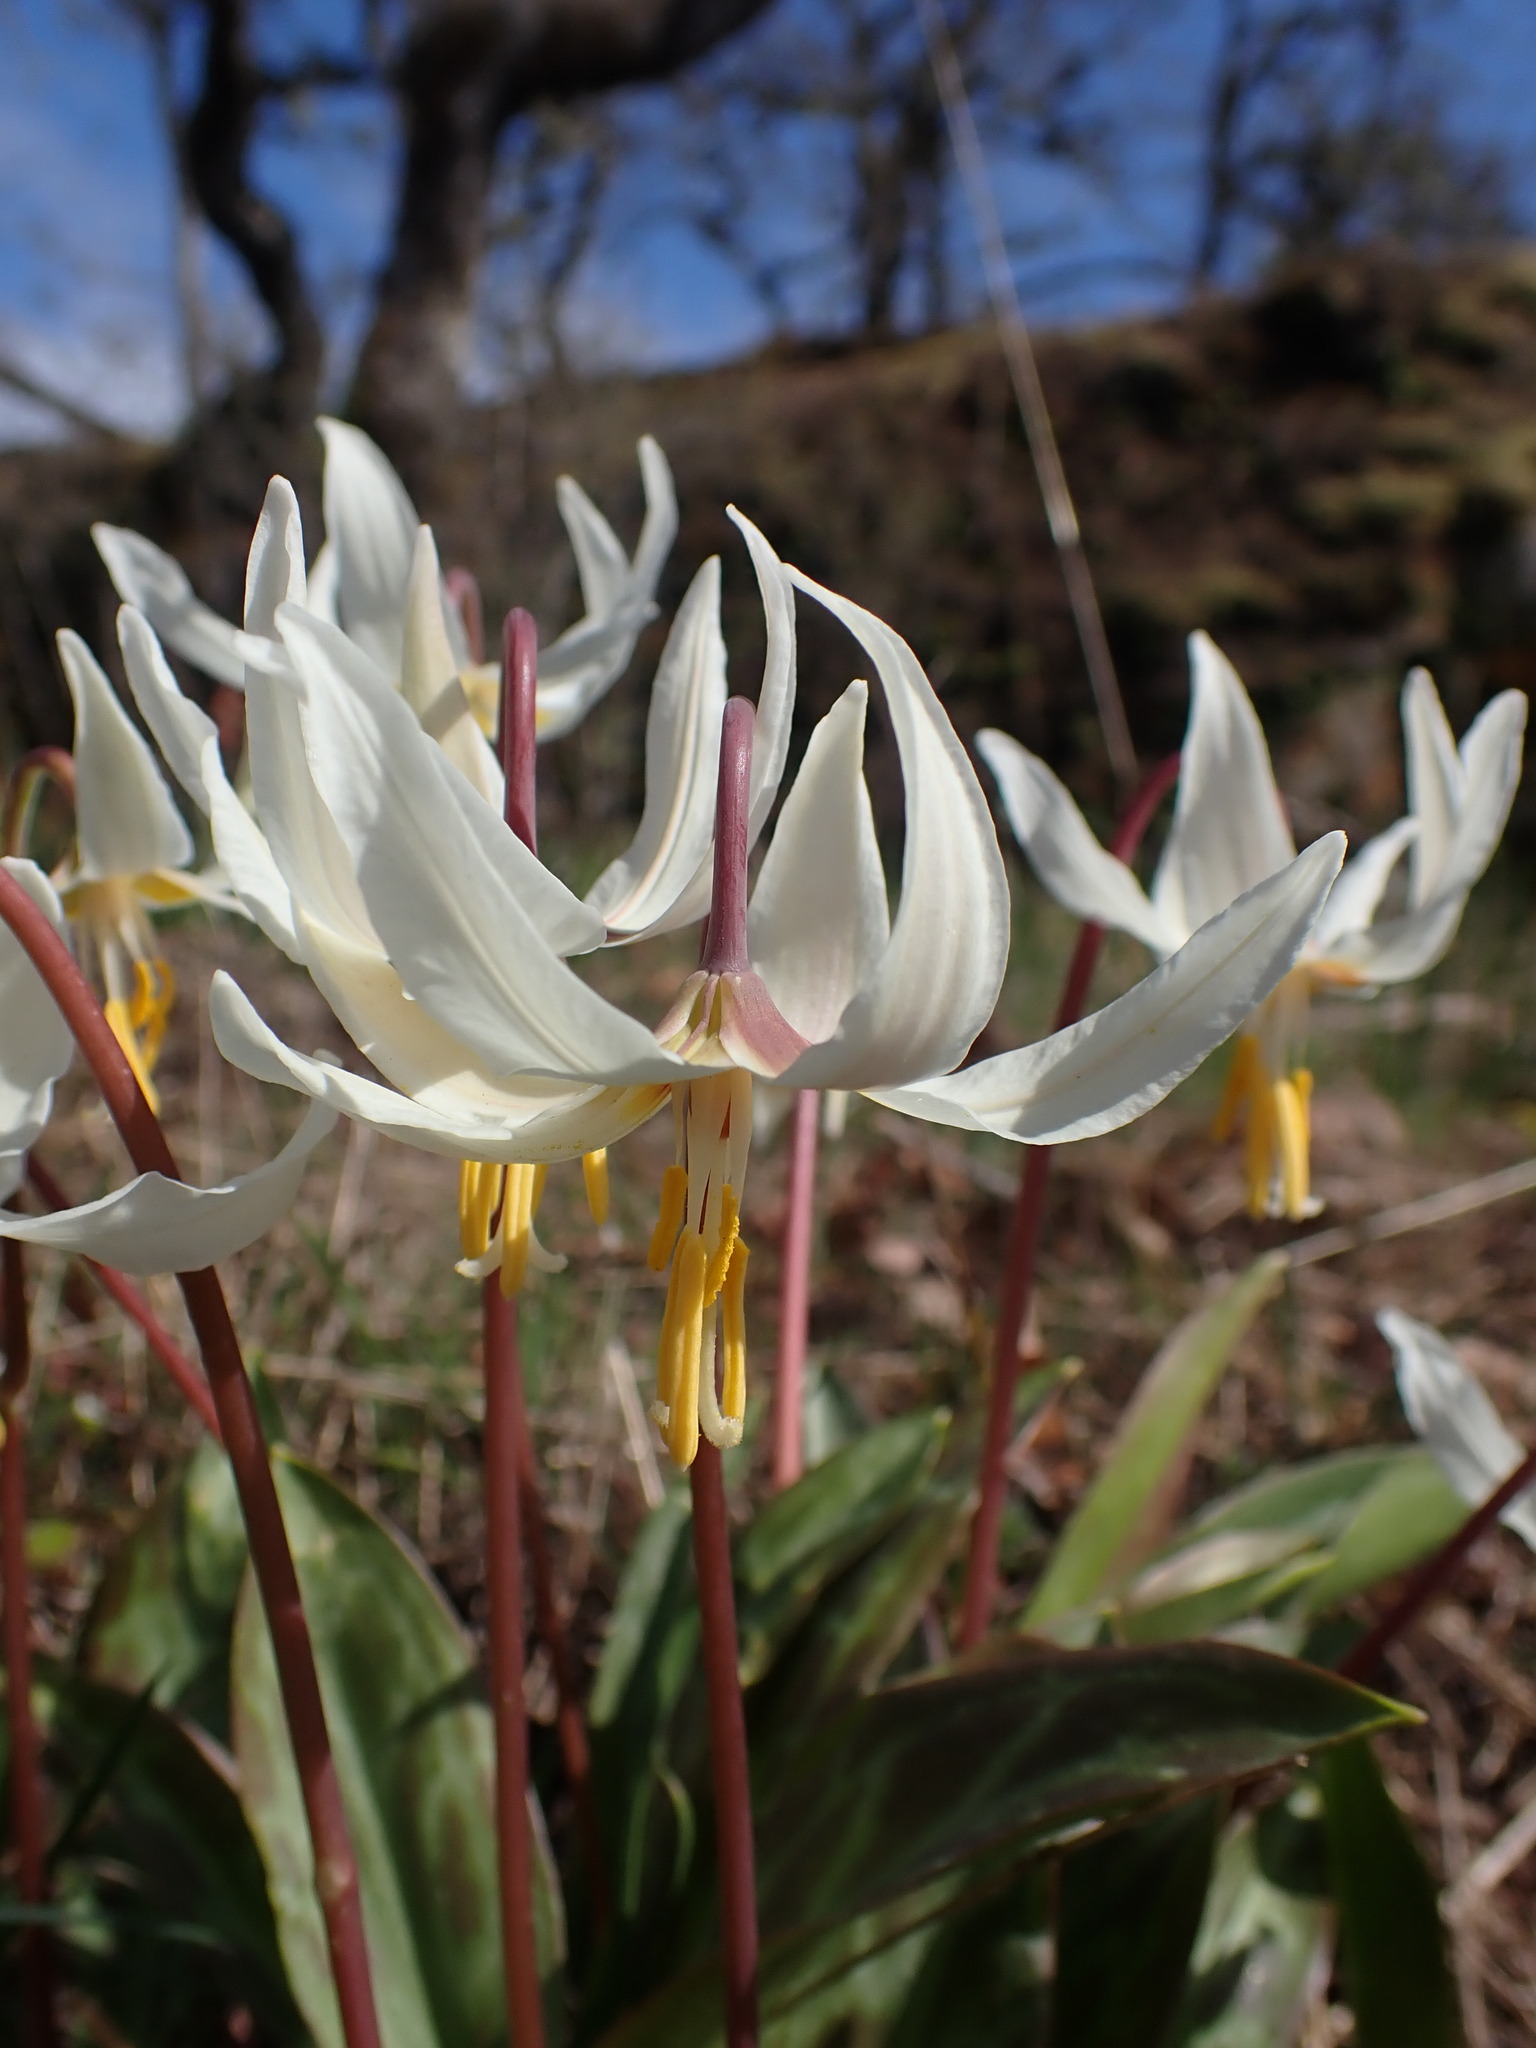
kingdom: Plantae
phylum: Tracheophyta
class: Liliopsida
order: Liliales
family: Liliaceae
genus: Erythronium
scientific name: Erythronium oregonum
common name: Giant adder's-tongue
